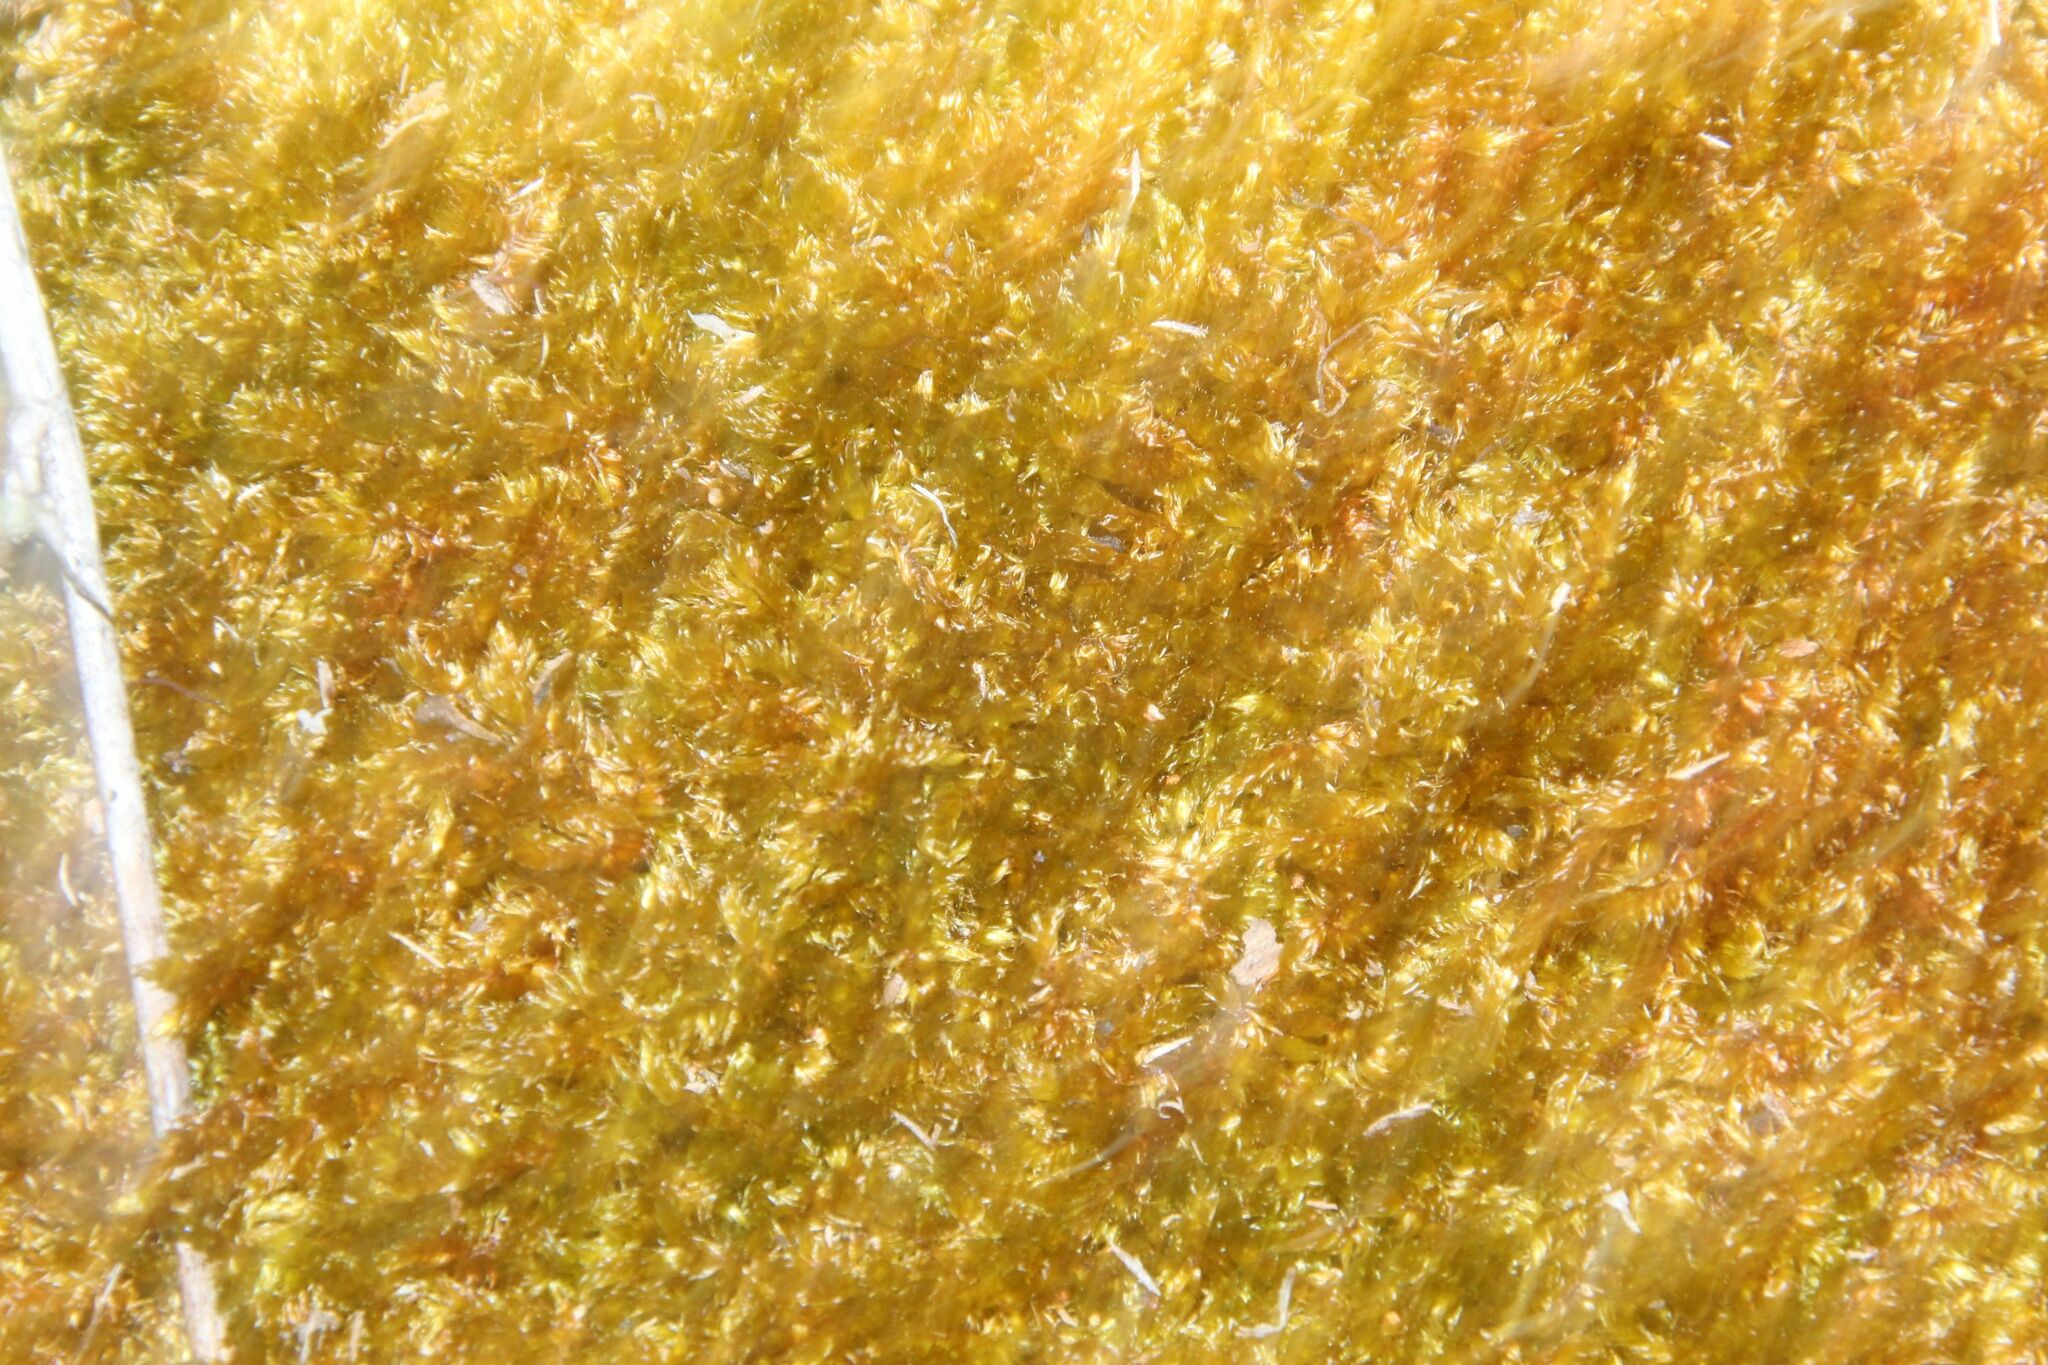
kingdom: Plantae
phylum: Bryophyta
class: Bryopsida
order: Hypnales
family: Sematophyllaceae
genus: Sematophyllum
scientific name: Sematophyllum homomallum
